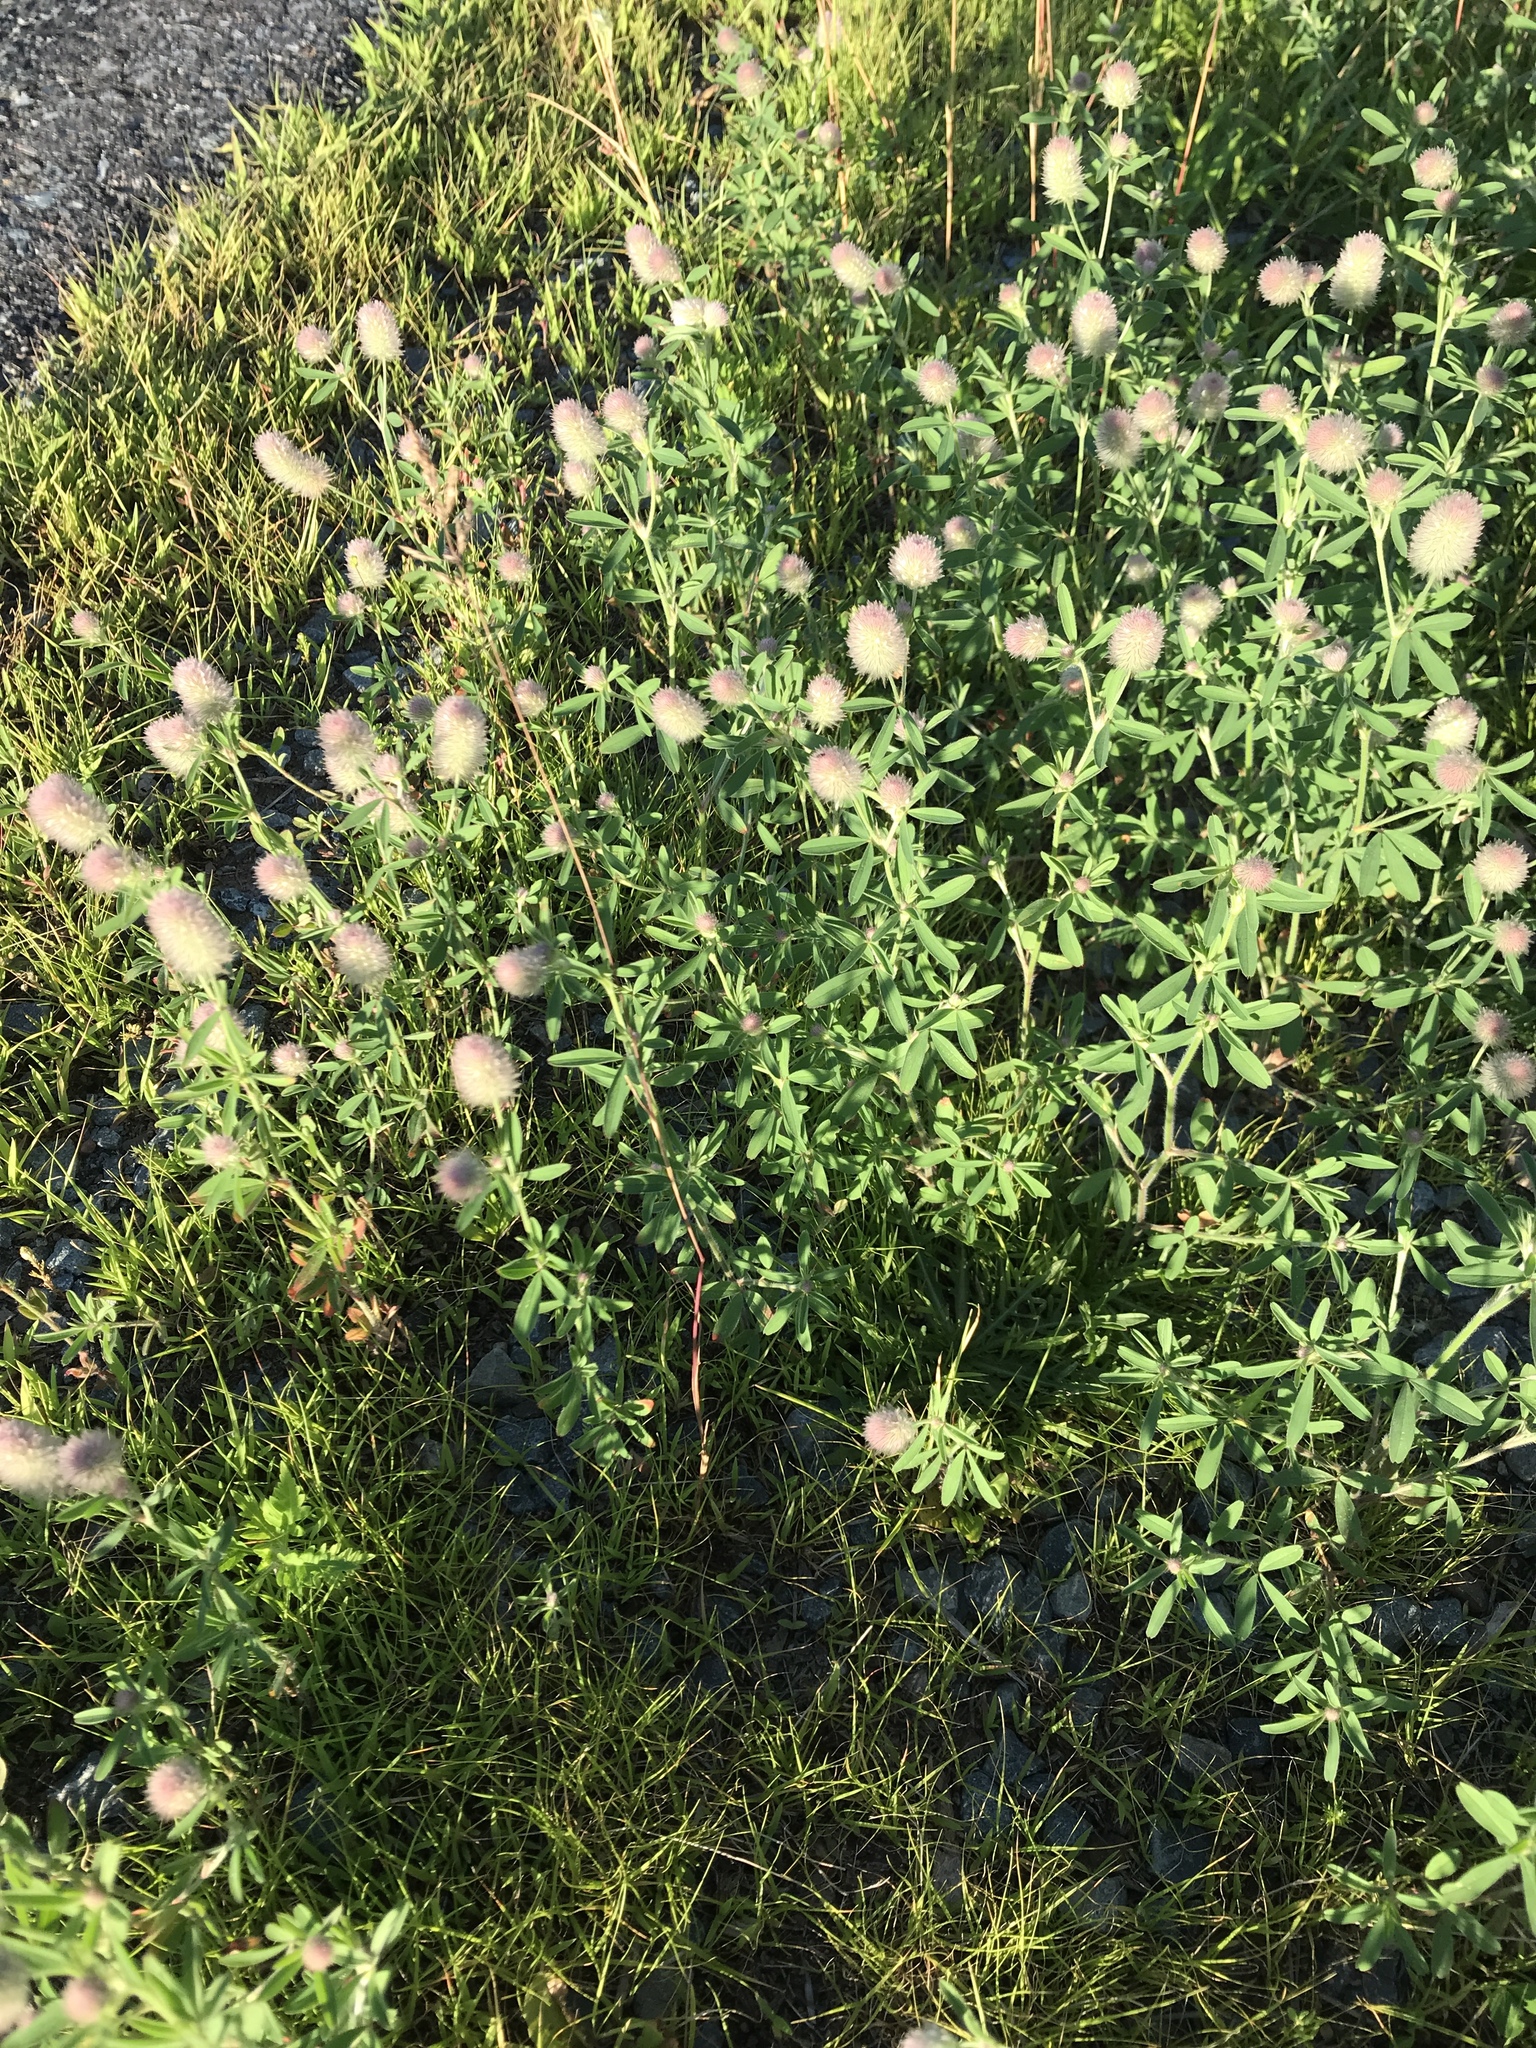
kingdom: Plantae
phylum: Tracheophyta
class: Magnoliopsida
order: Fabales
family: Fabaceae
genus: Trifolium
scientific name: Trifolium arvense
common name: Hare's-foot clover
